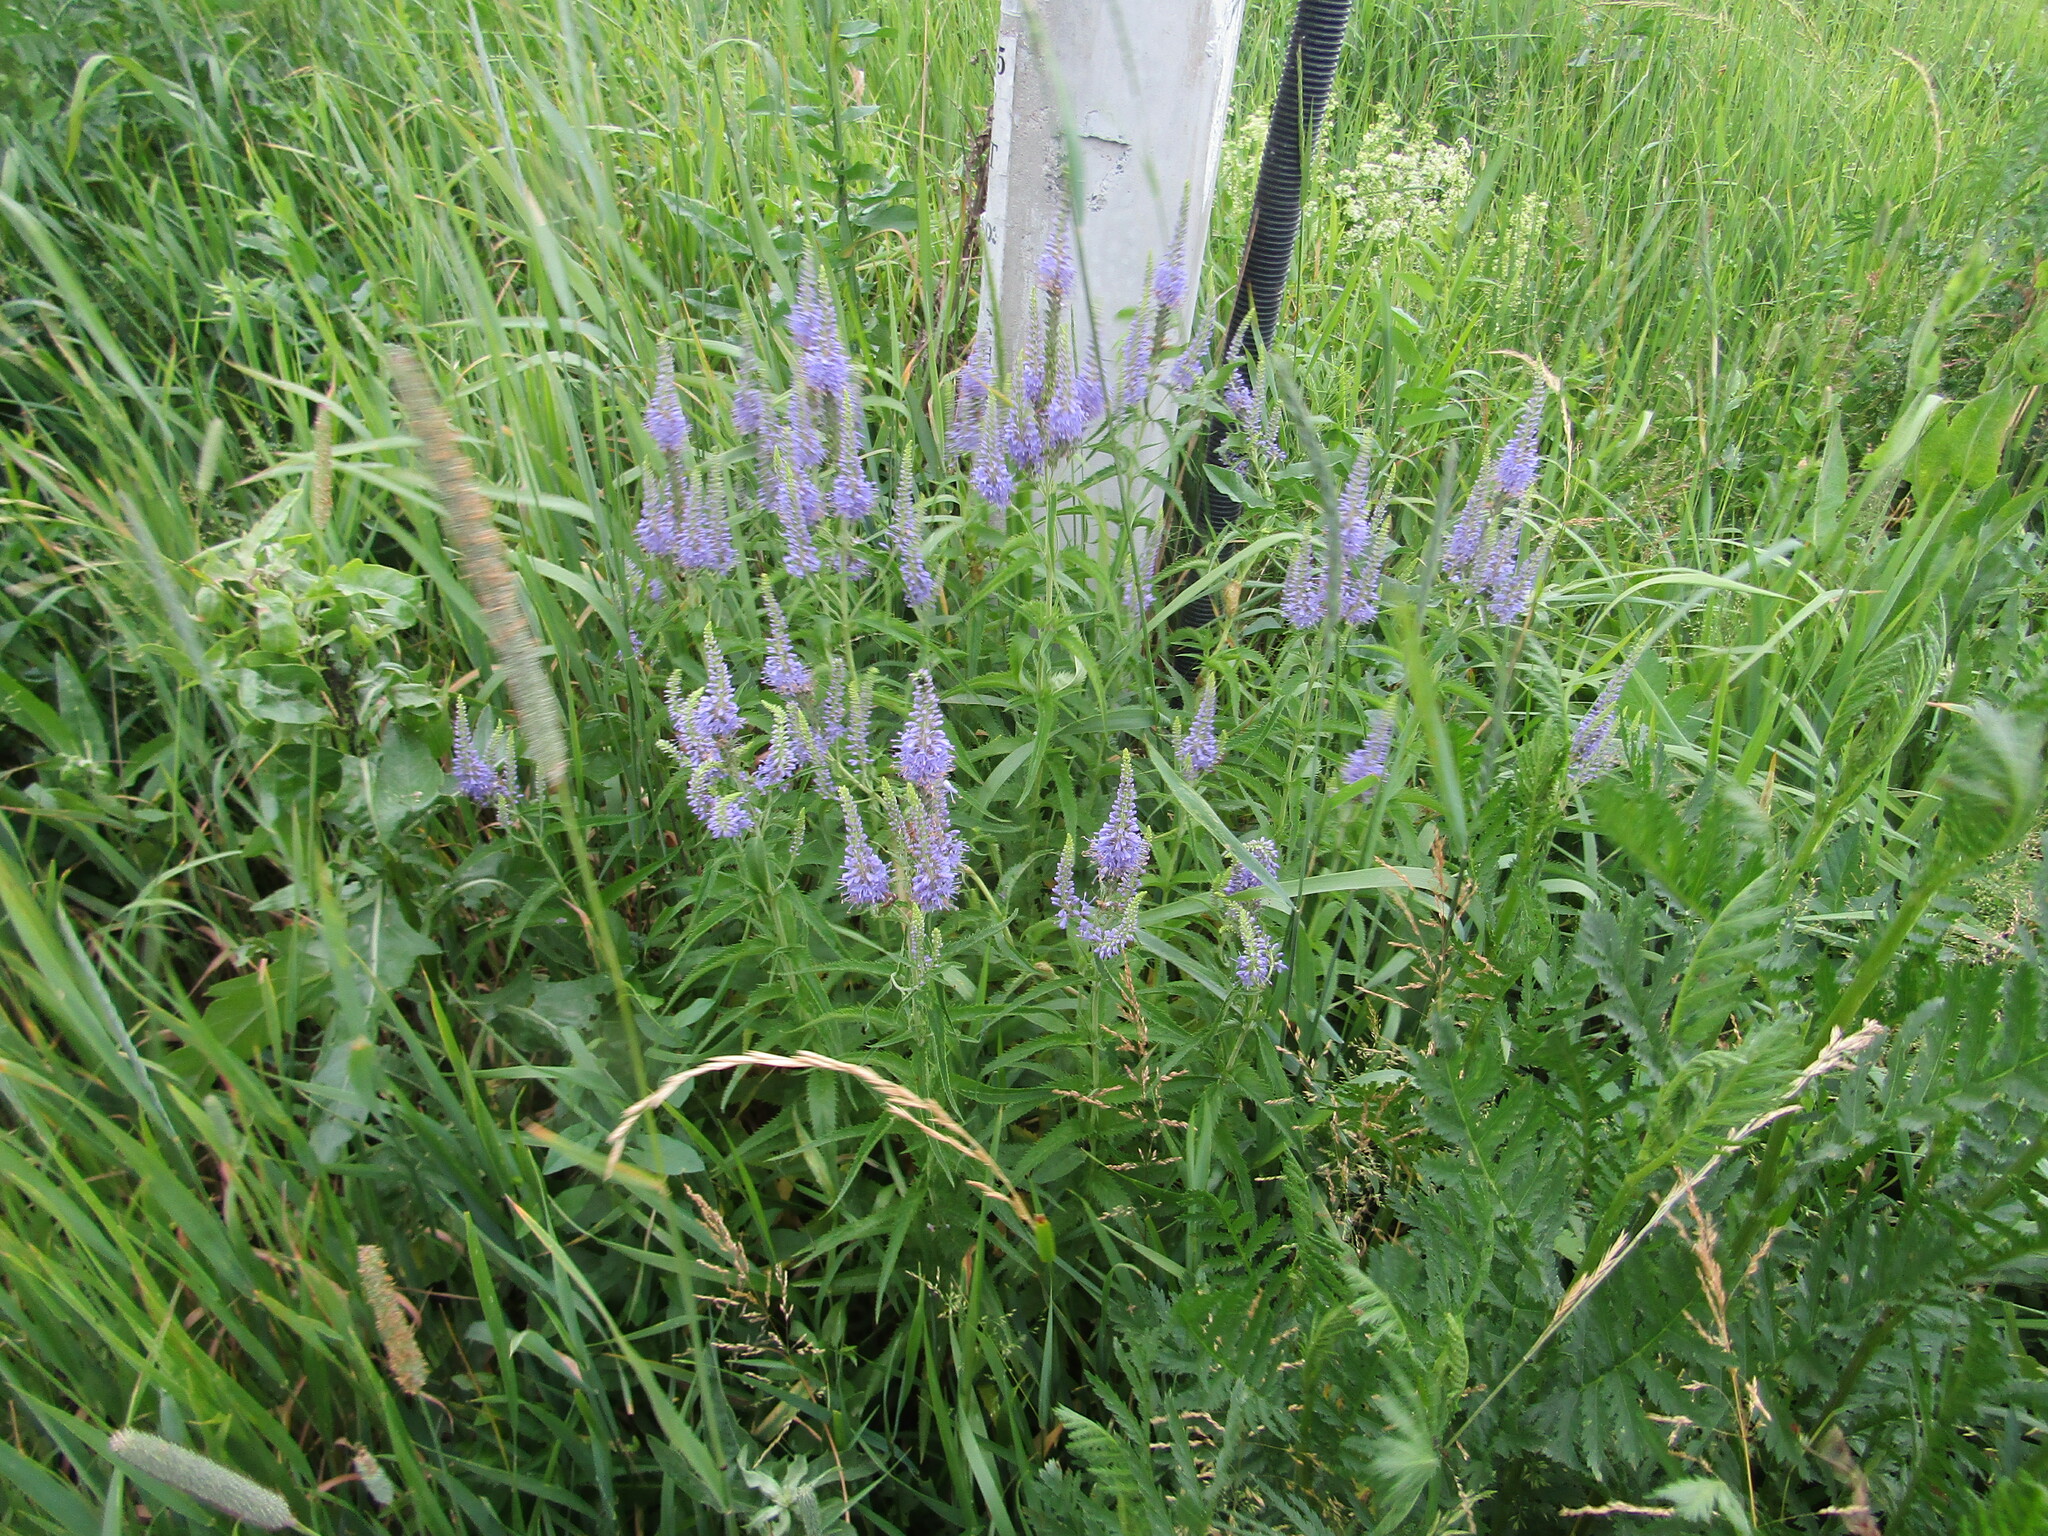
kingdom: Plantae
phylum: Tracheophyta
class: Magnoliopsida
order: Lamiales
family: Plantaginaceae
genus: Veronica
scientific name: Veronica longifolia
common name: Garden speedwell
